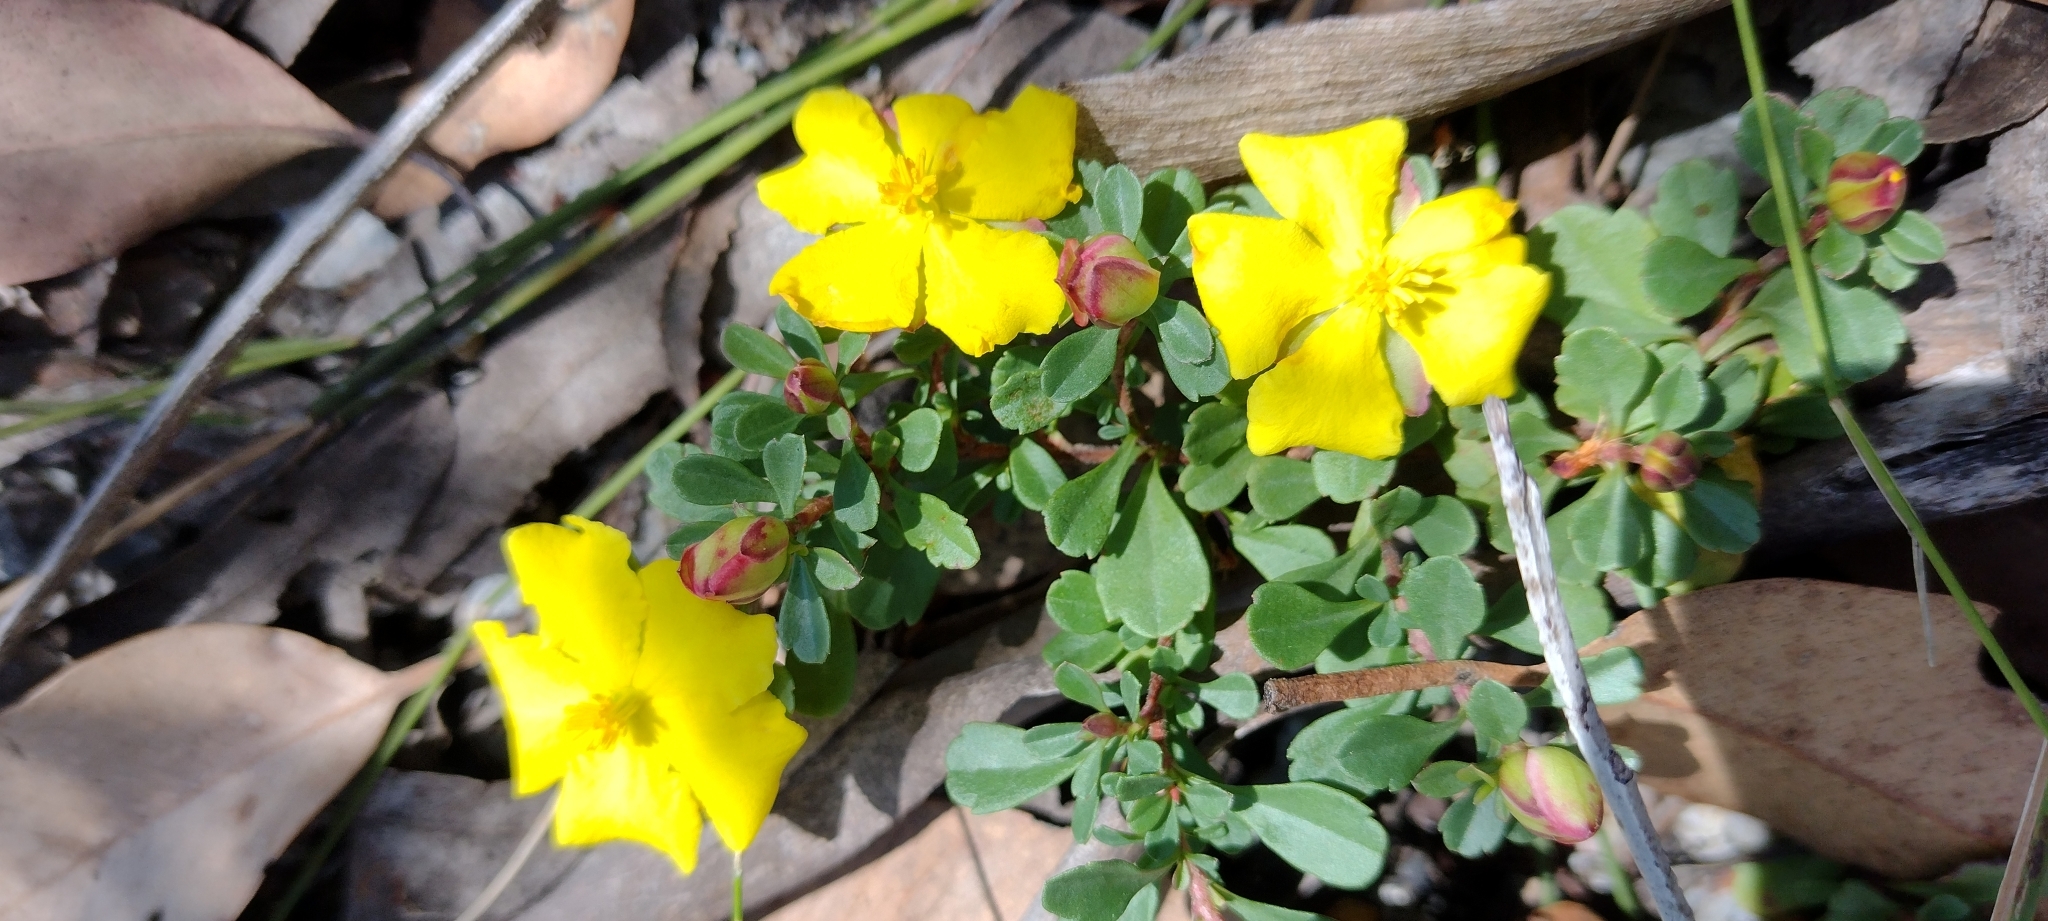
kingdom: Plantae
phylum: Tracheophyta
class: Magnoliopsida
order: Dilleniales
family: Dilleniaceae
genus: Hibbertia
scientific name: Hibbertia diffusa
